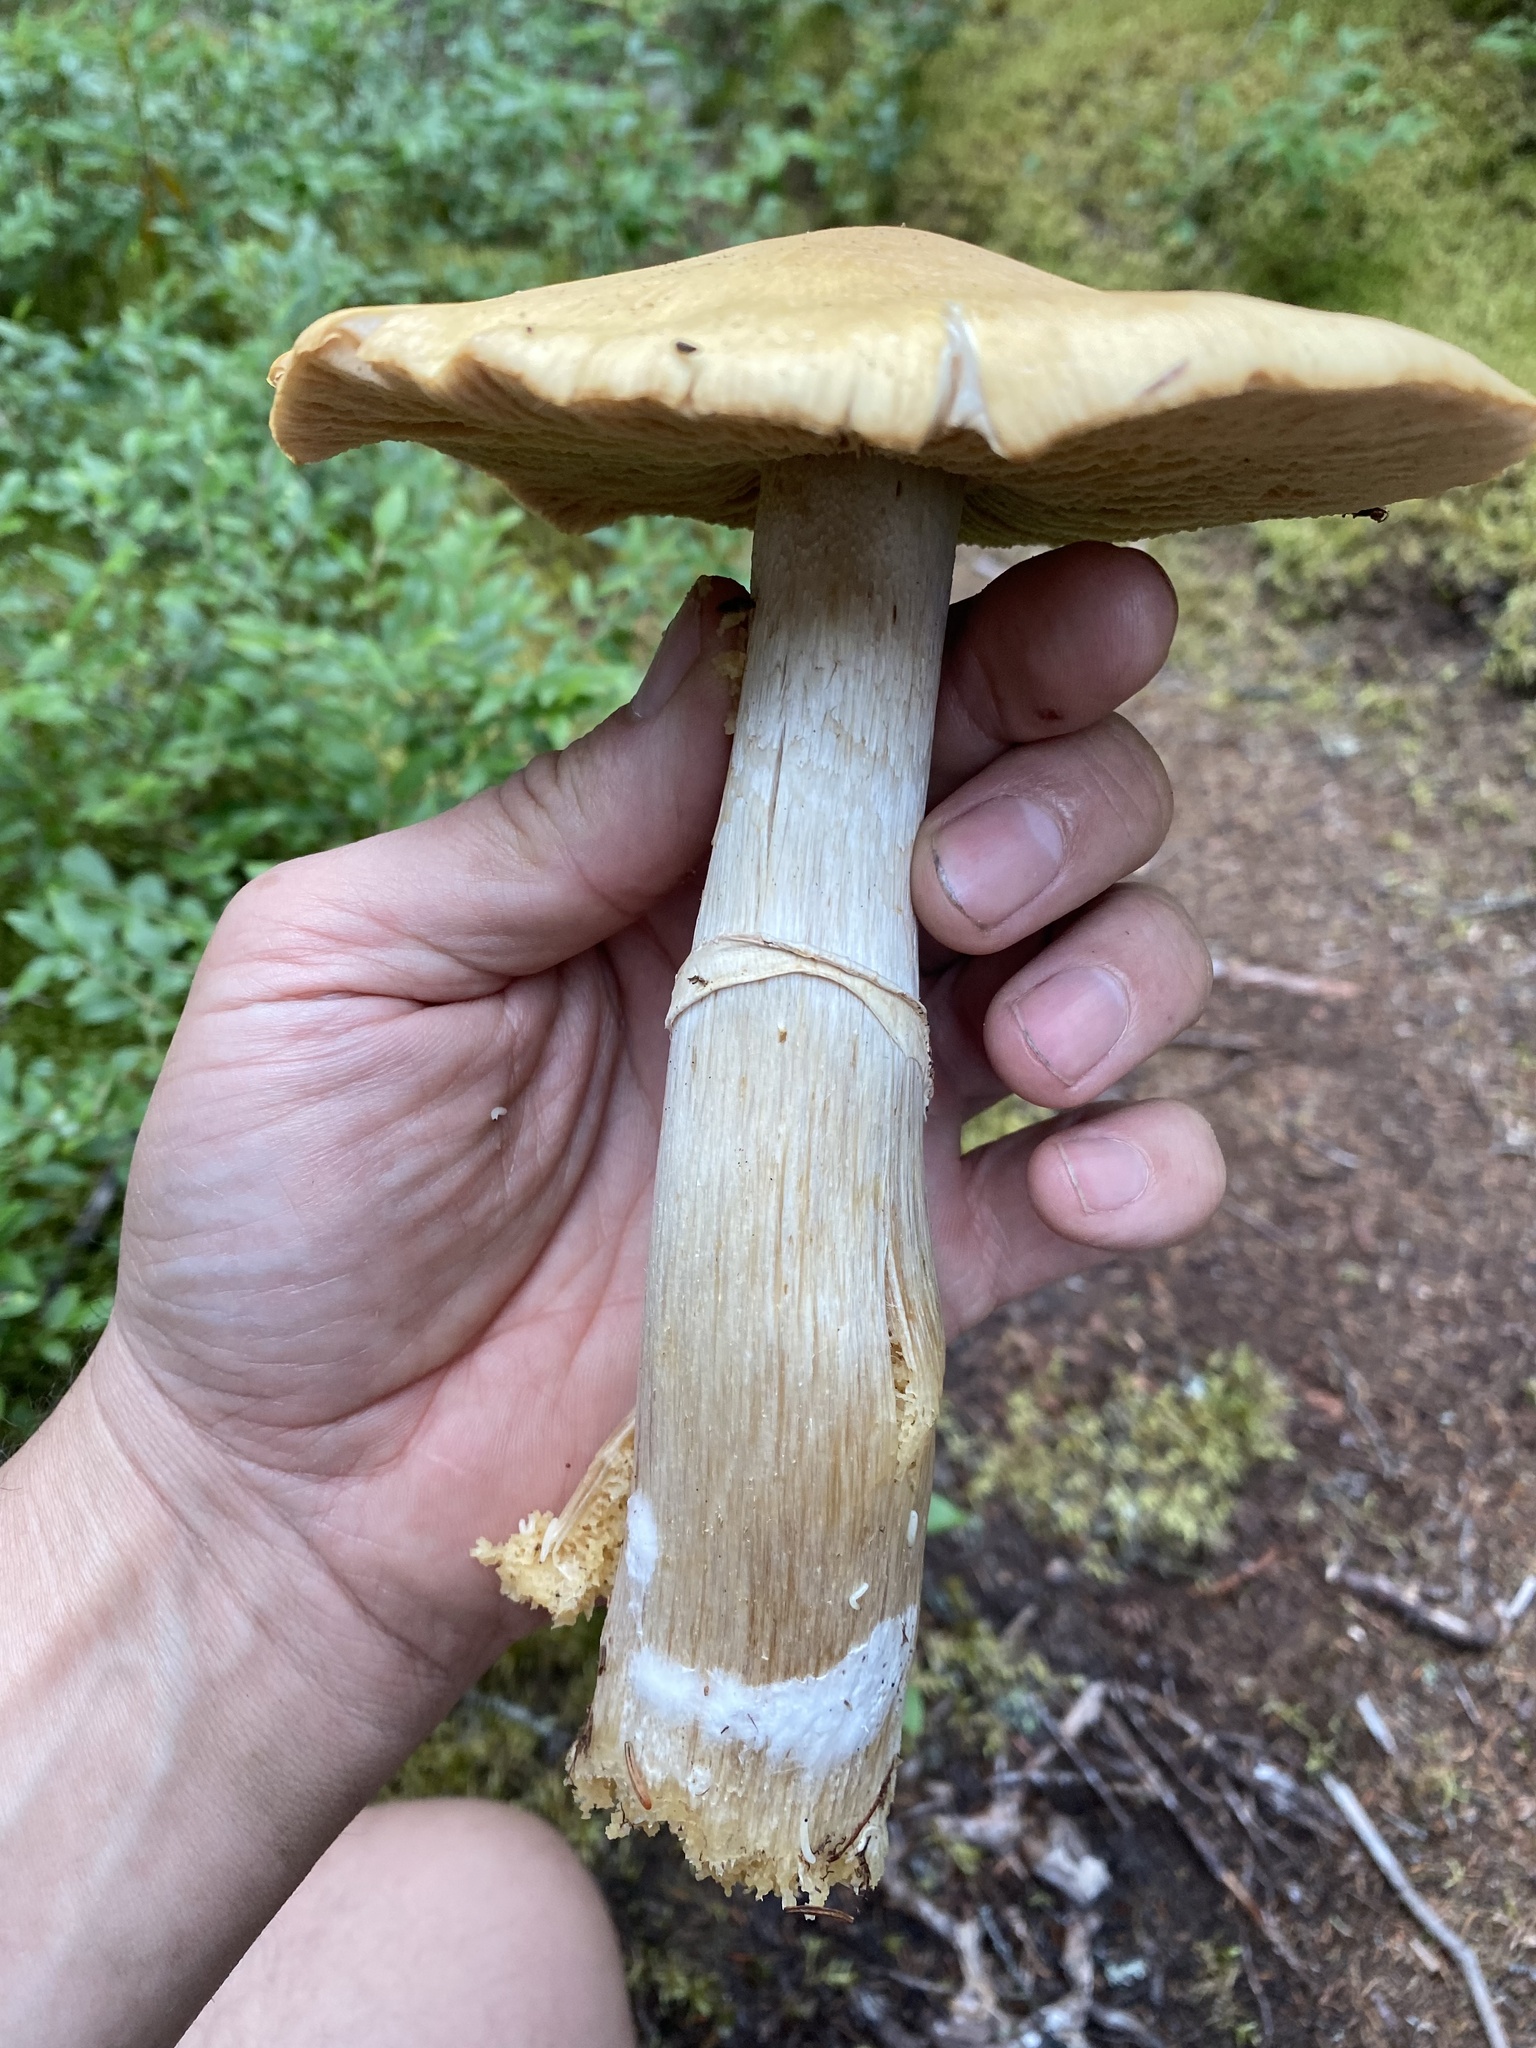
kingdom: Fungi
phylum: Basidiomycota
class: Agaricomycetes
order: Agaricales
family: Cortinariaceae
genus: Cortinarius
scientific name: Cortinarius caperatus
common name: The gypsy
